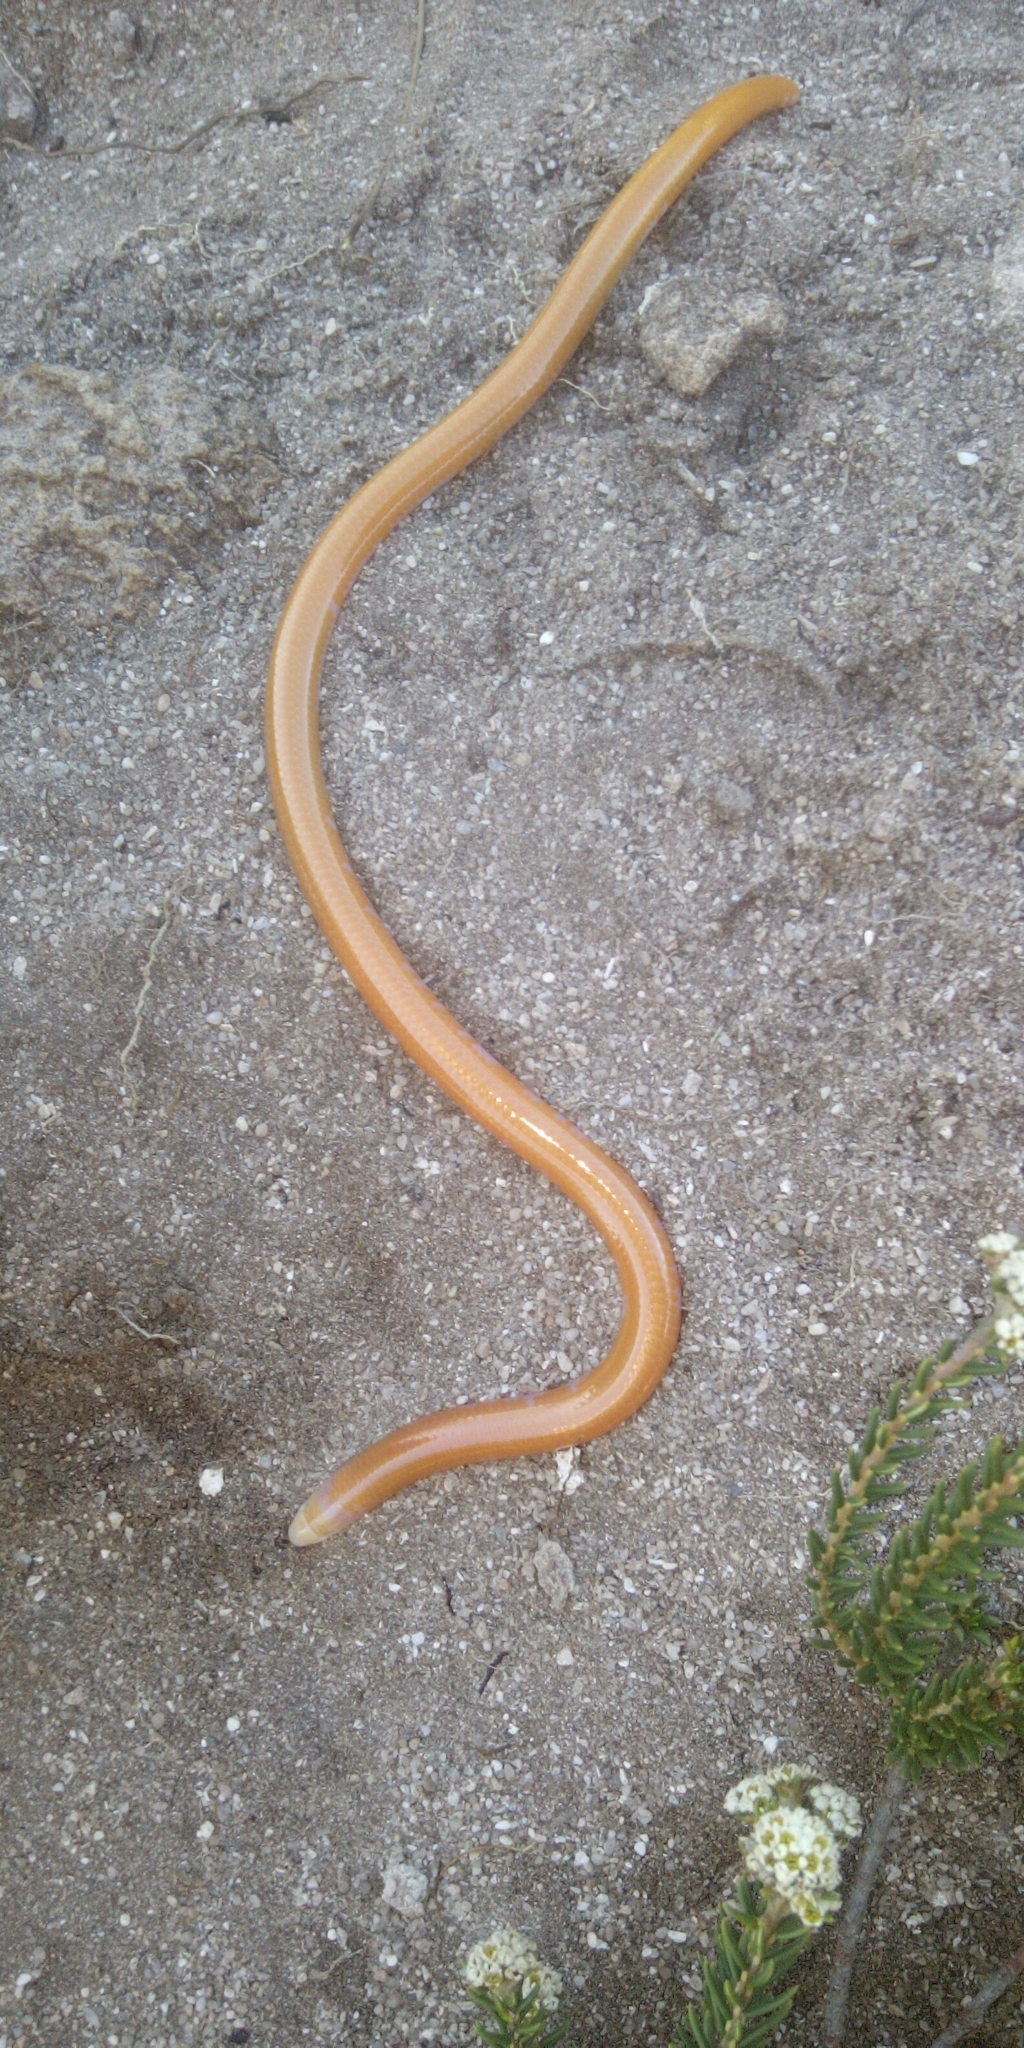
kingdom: Animalia
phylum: Chordata
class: Squamata
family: Scincidae
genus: Typhlosaurus
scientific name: Typhlosaurus caecus
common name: Cuvier's legless skink
